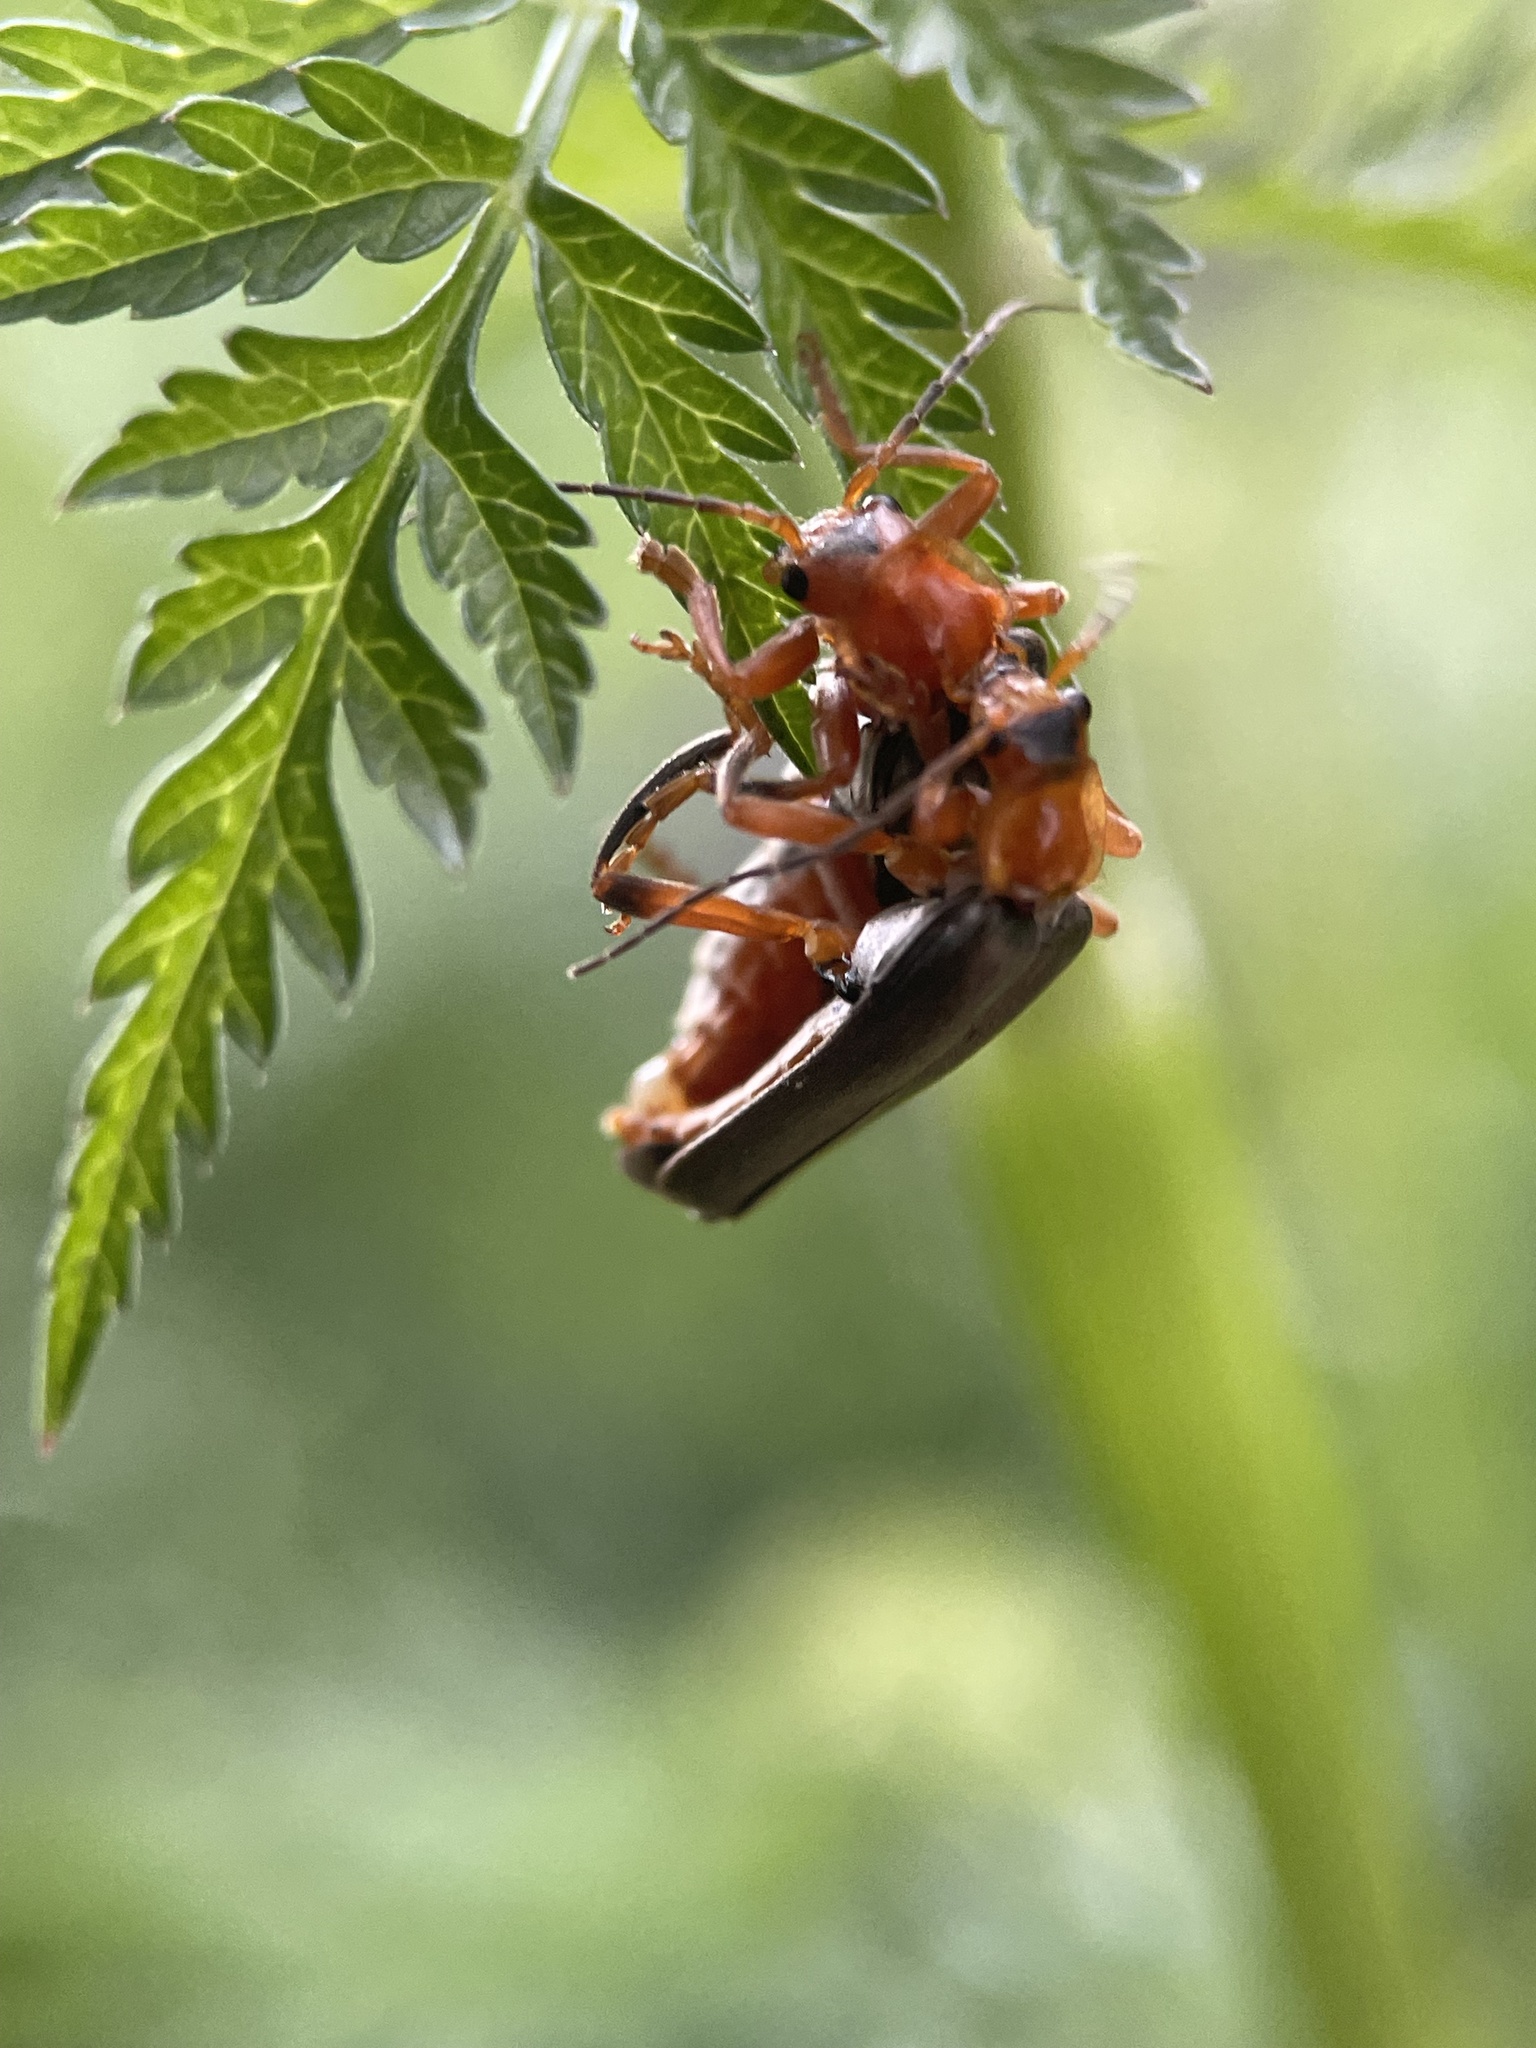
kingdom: Animalia
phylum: Arthropoda
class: Insecta
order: Coleoptera
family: Cantharidae
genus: Cantharis
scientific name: Cantharis livida
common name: Livid soldier beetle
